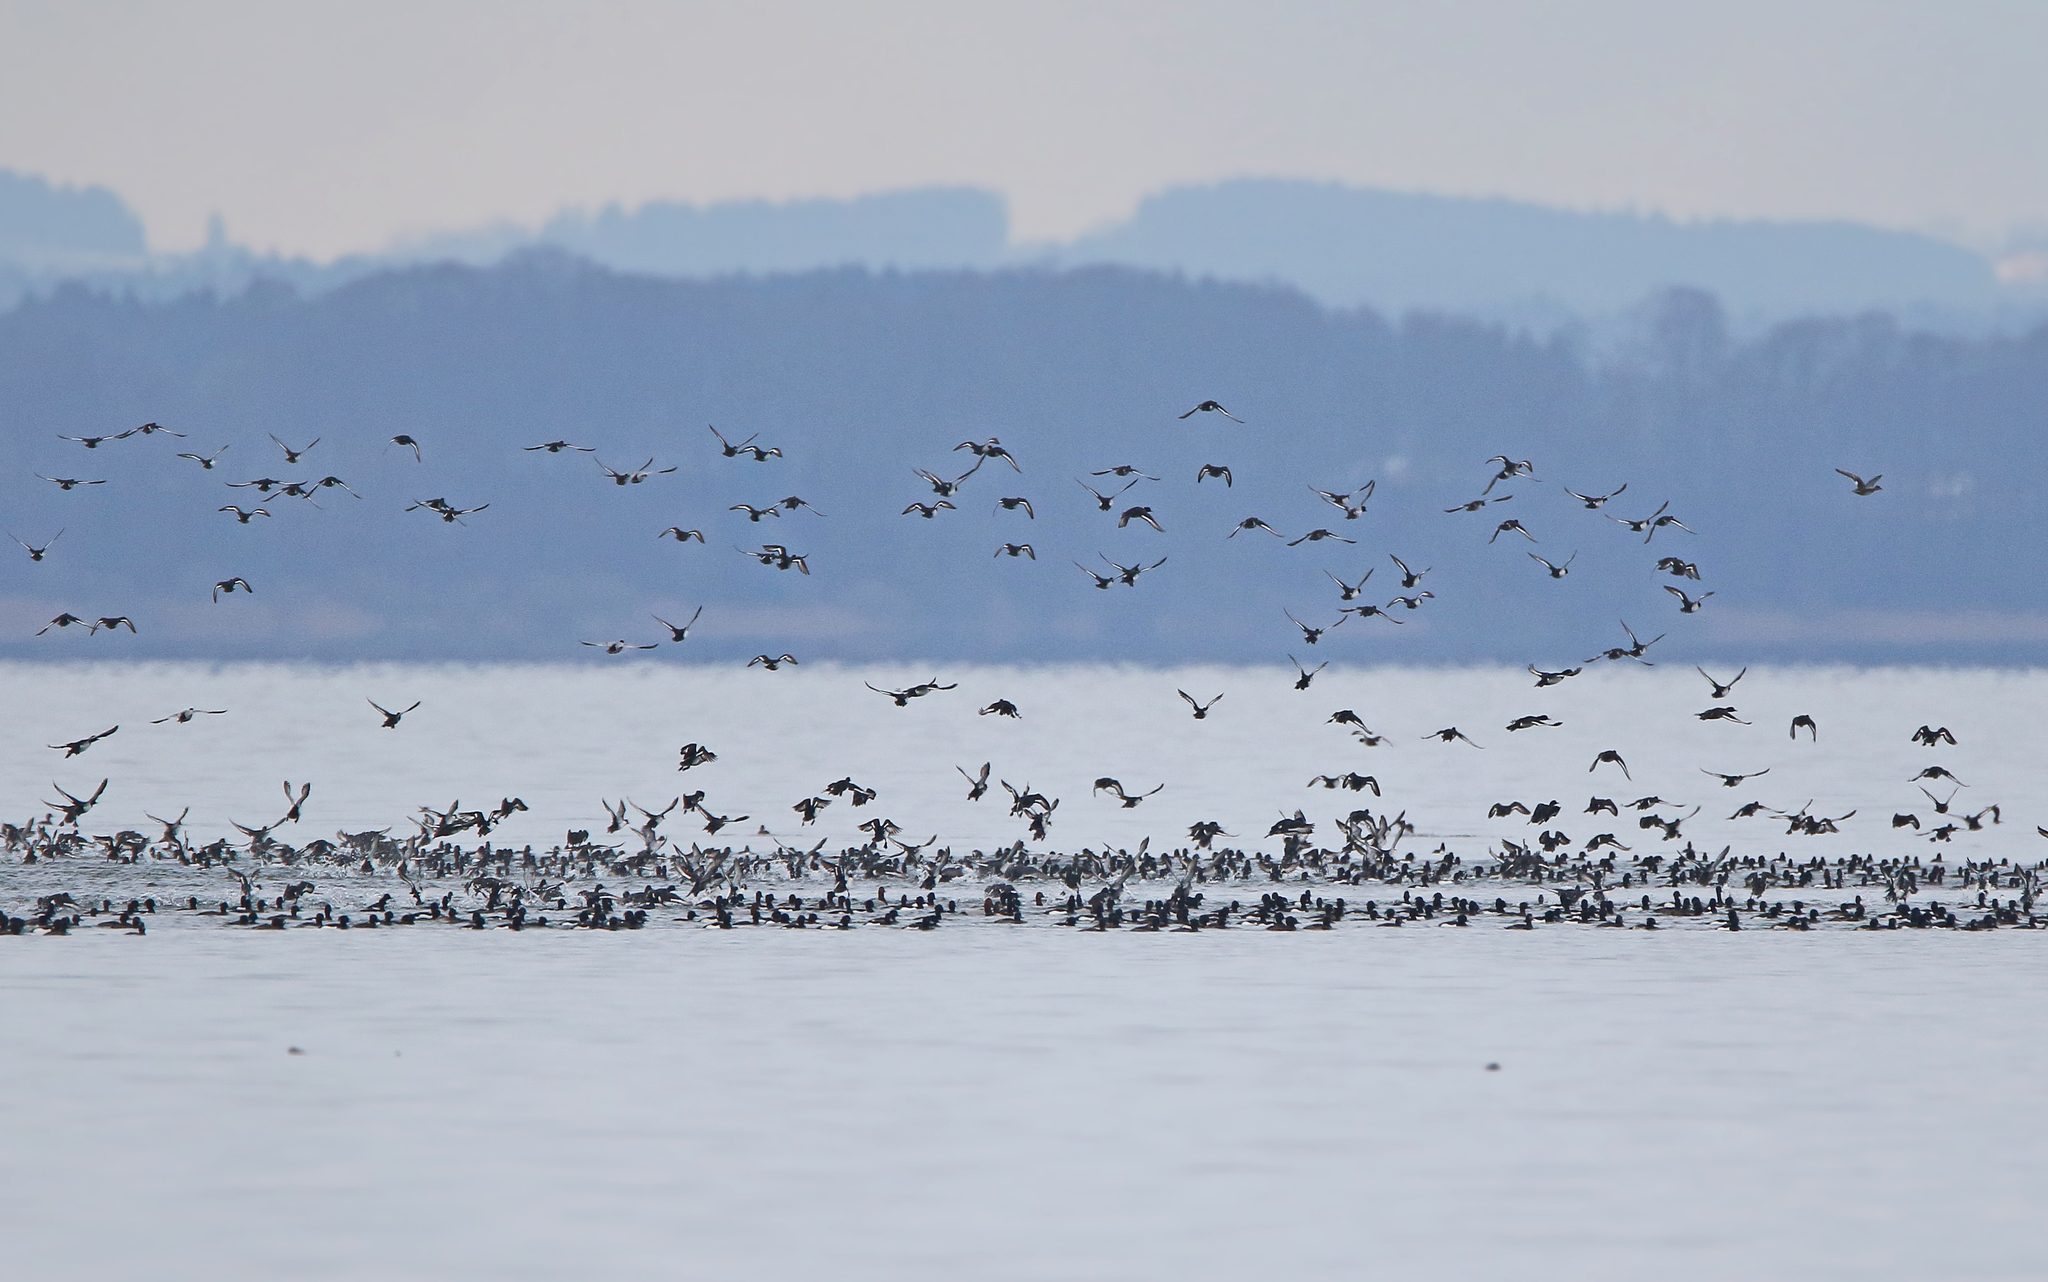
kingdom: Animalia
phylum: Chordata
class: Aves
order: Anseriformes
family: Anatidae
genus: Aythya
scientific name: Aythya fuligula
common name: Tufted duck
